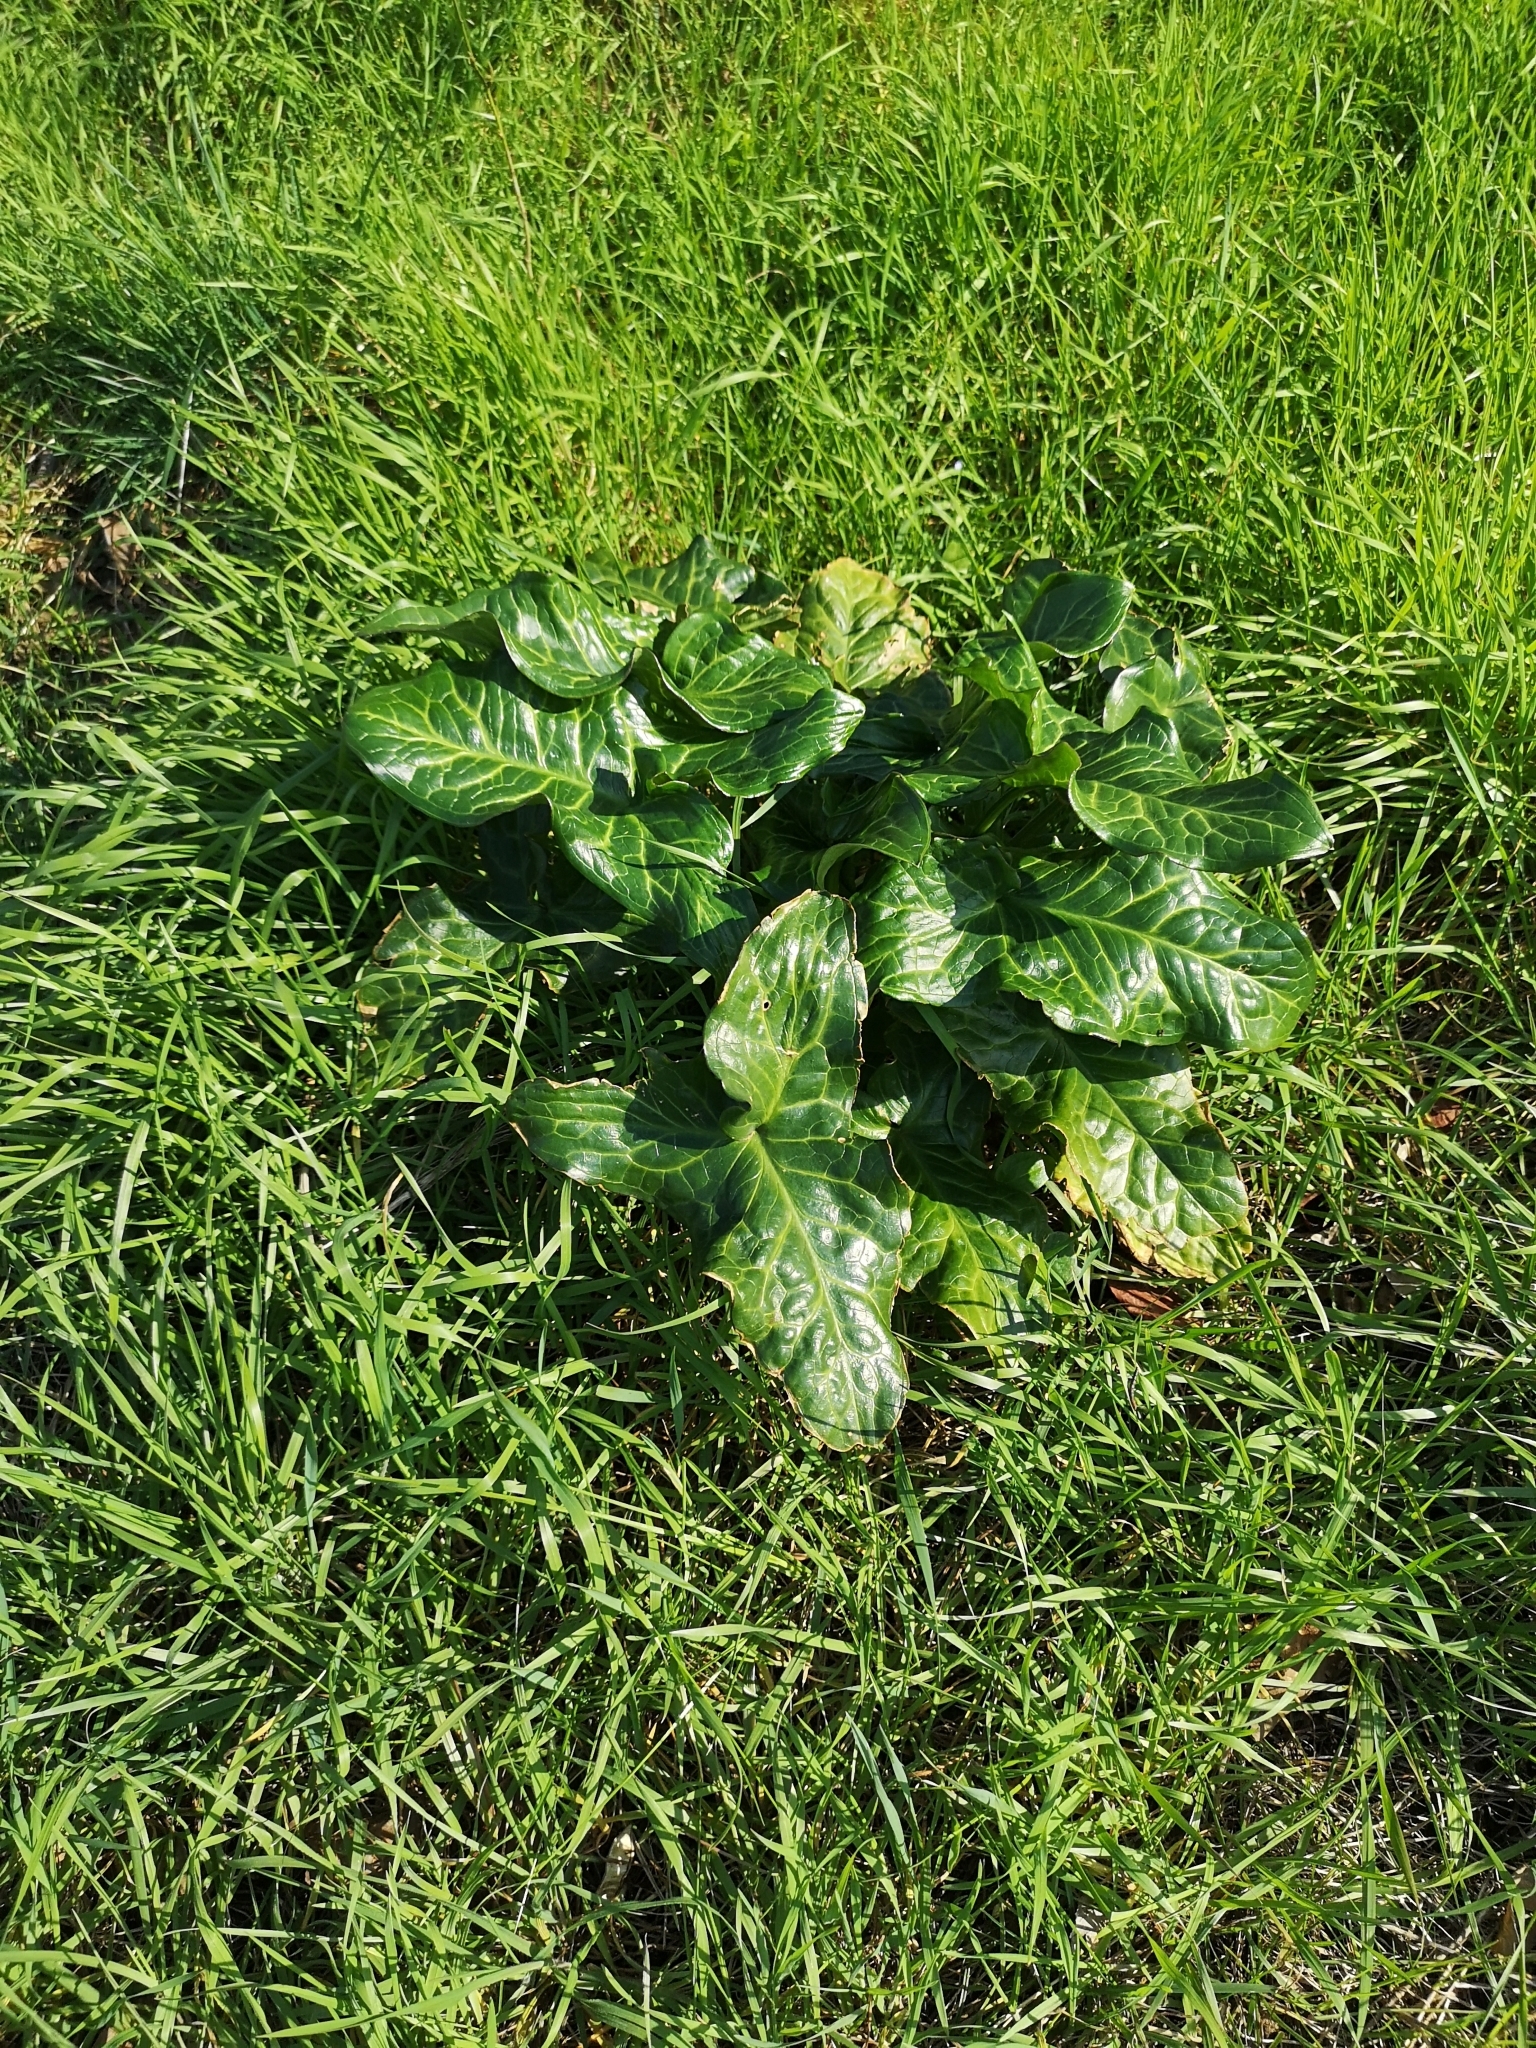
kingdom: Plantae
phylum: Tracheophyta
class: Liliopsida
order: Alismatales
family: Araceae
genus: Arum
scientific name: Arum italicum
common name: Italian lords-and-ladies
